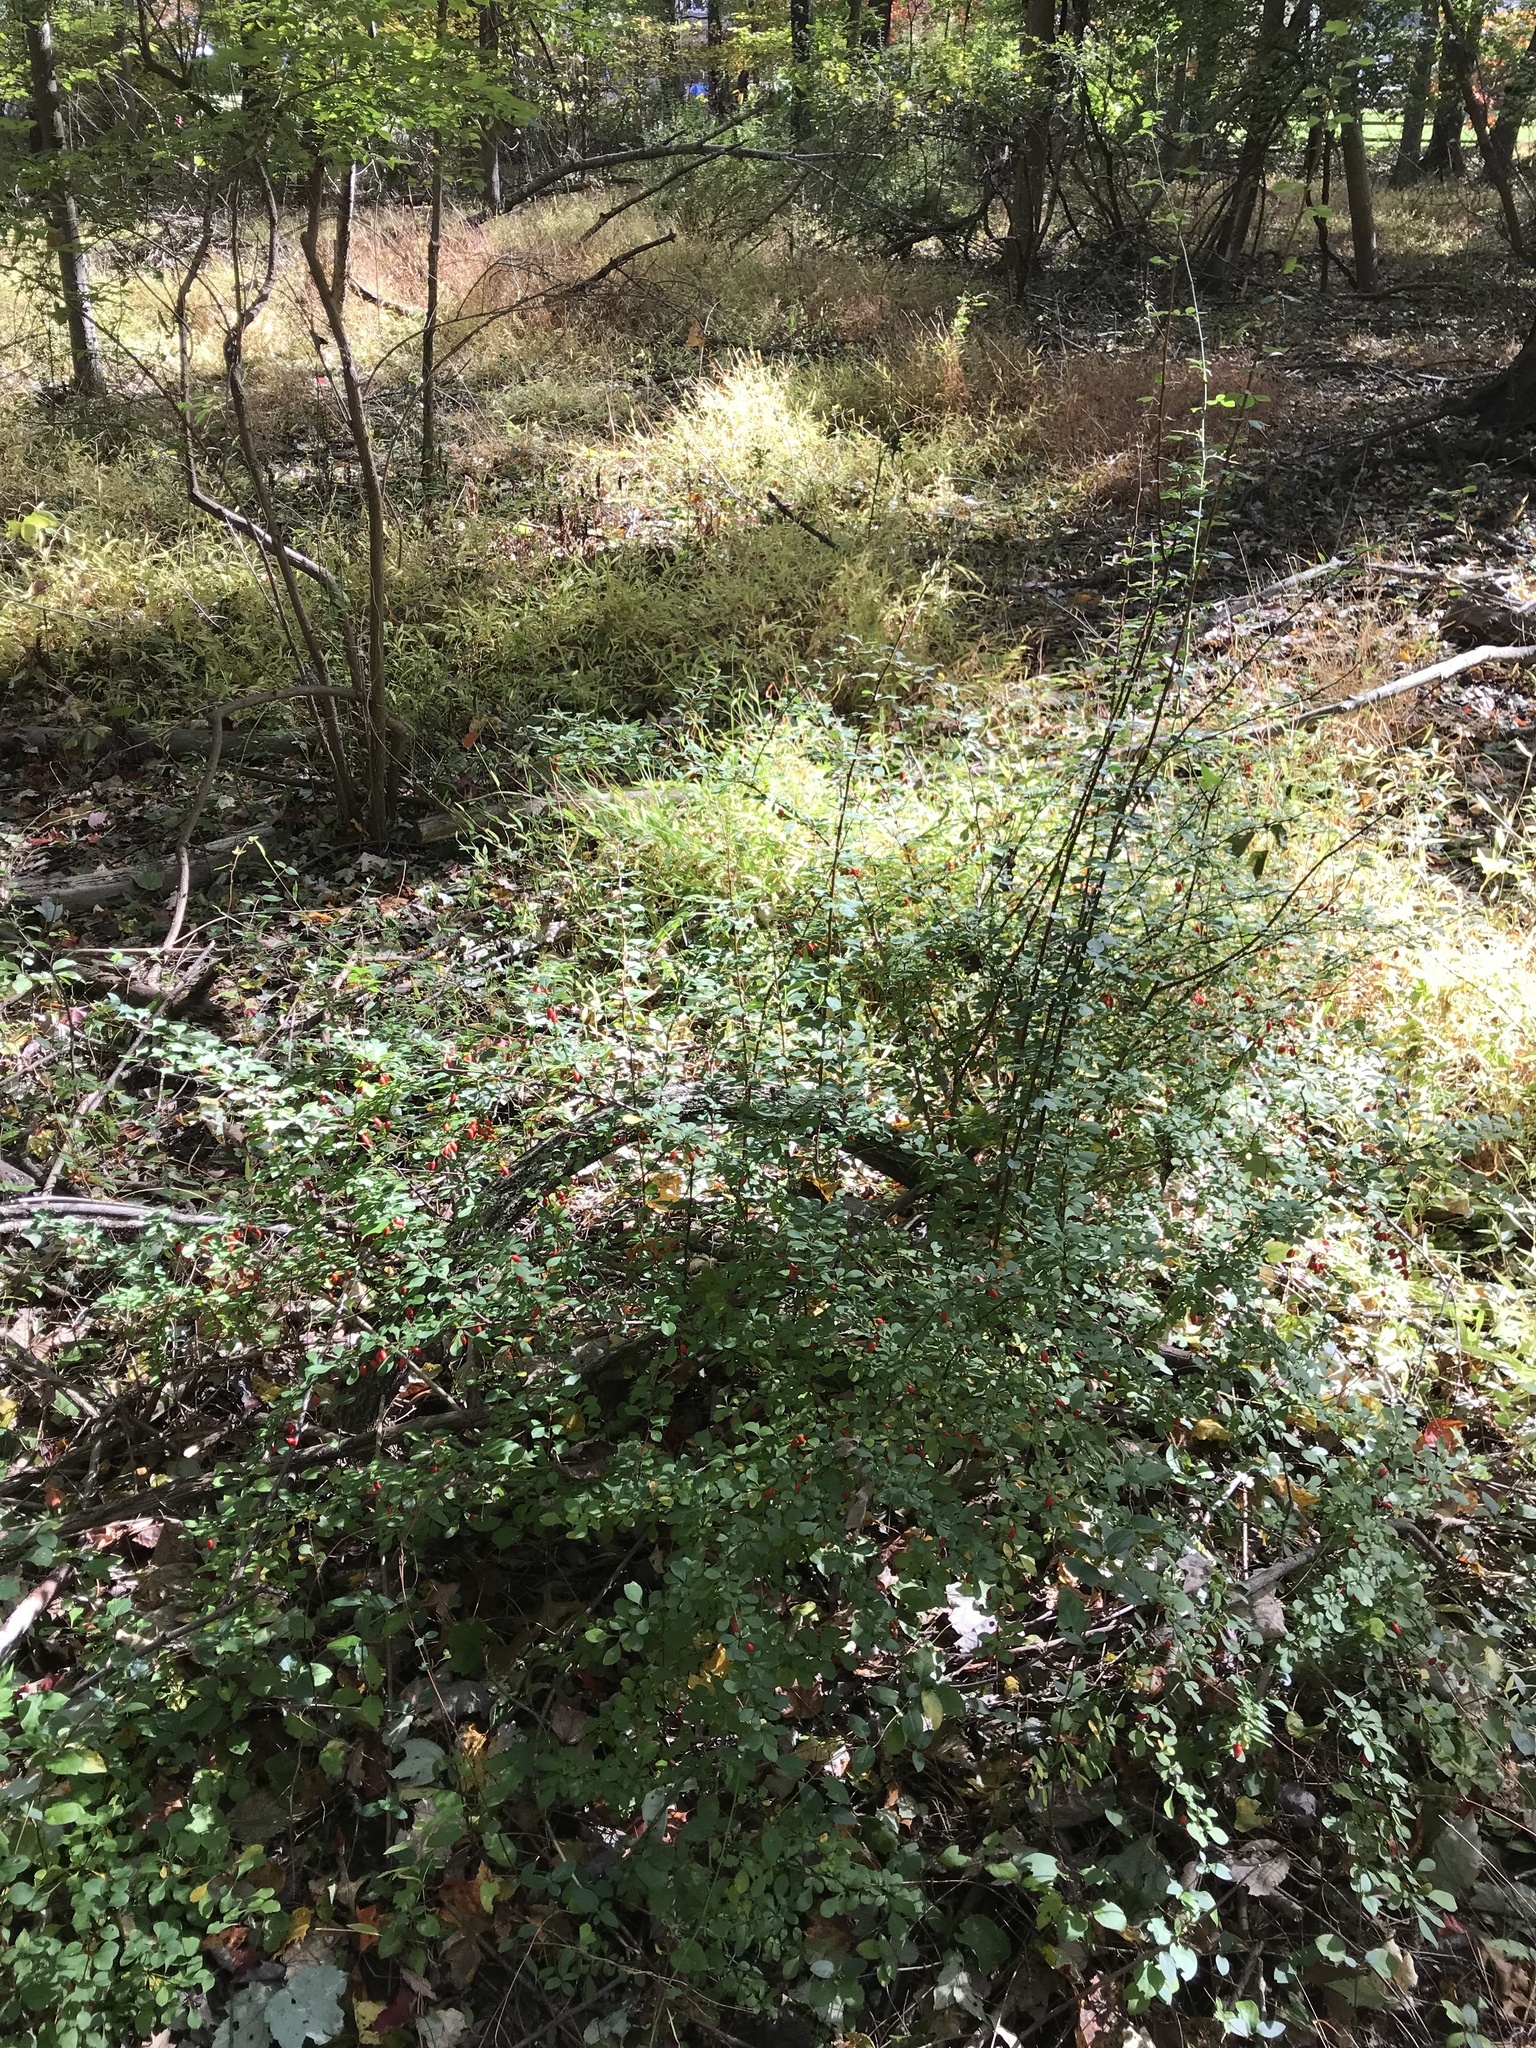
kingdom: Plantae
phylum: Tracheophyta
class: Magnoliopsida
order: Ranunculales
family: Berberidaceae
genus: Berberis
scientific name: Berberis thunbergii
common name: Japanese barberry
